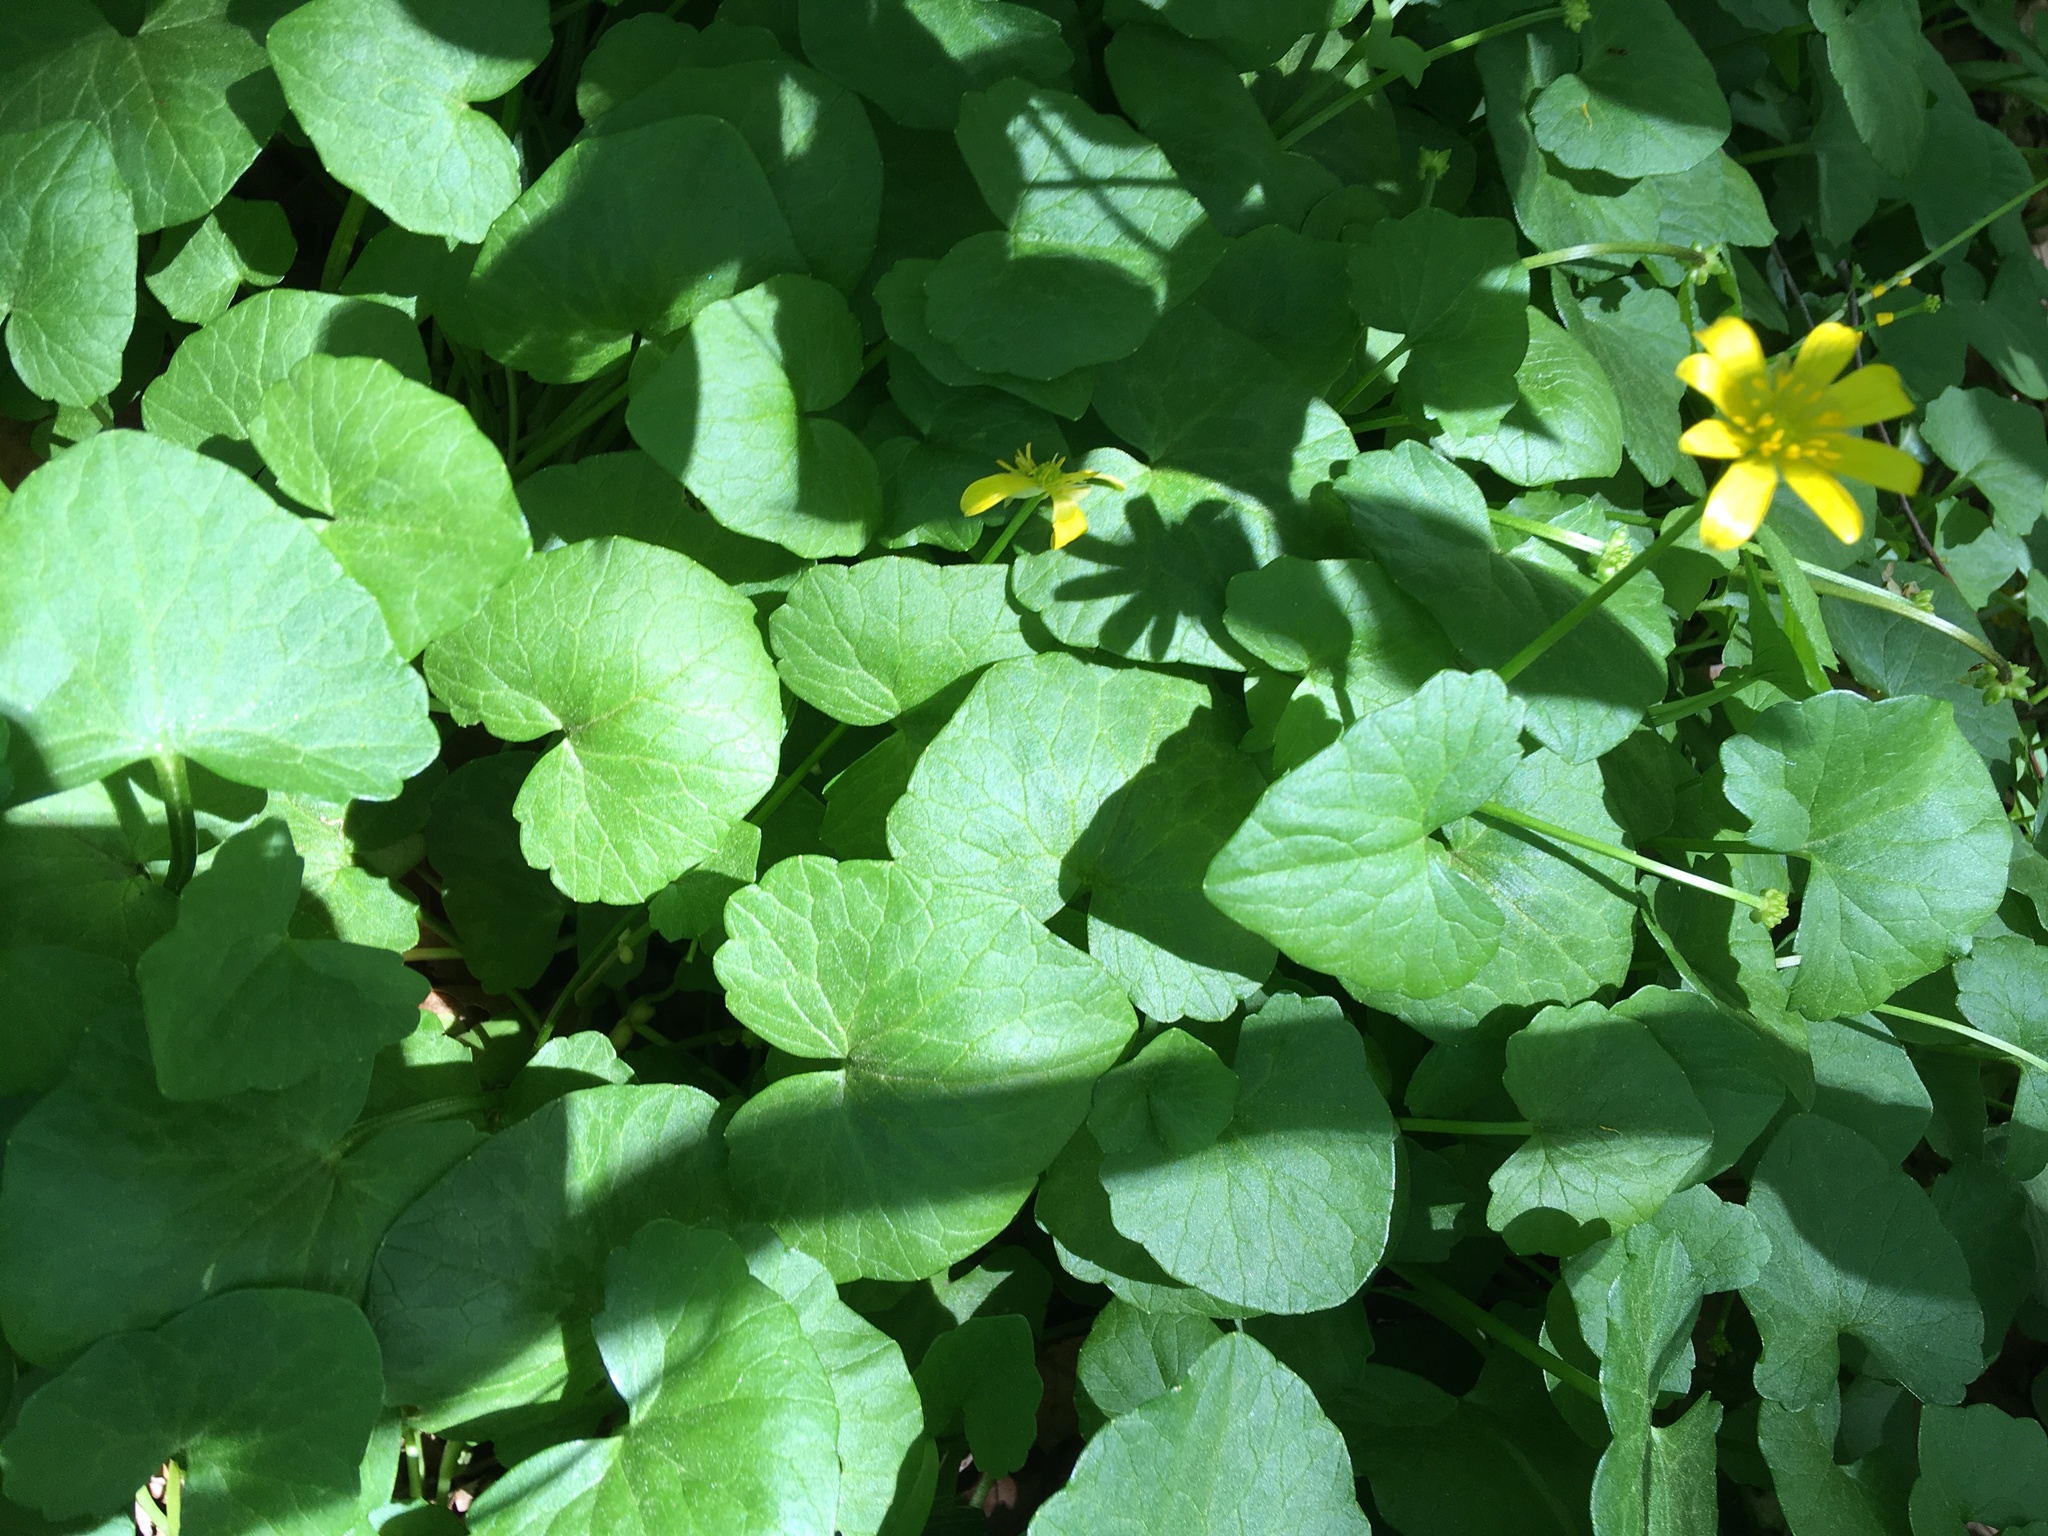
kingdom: Plantae
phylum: Tracheophyta
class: Magnoliopsida
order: Ranunculales
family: Ranunculaceae
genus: Ficaria
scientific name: Ficaria verna
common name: Lesser celandine
